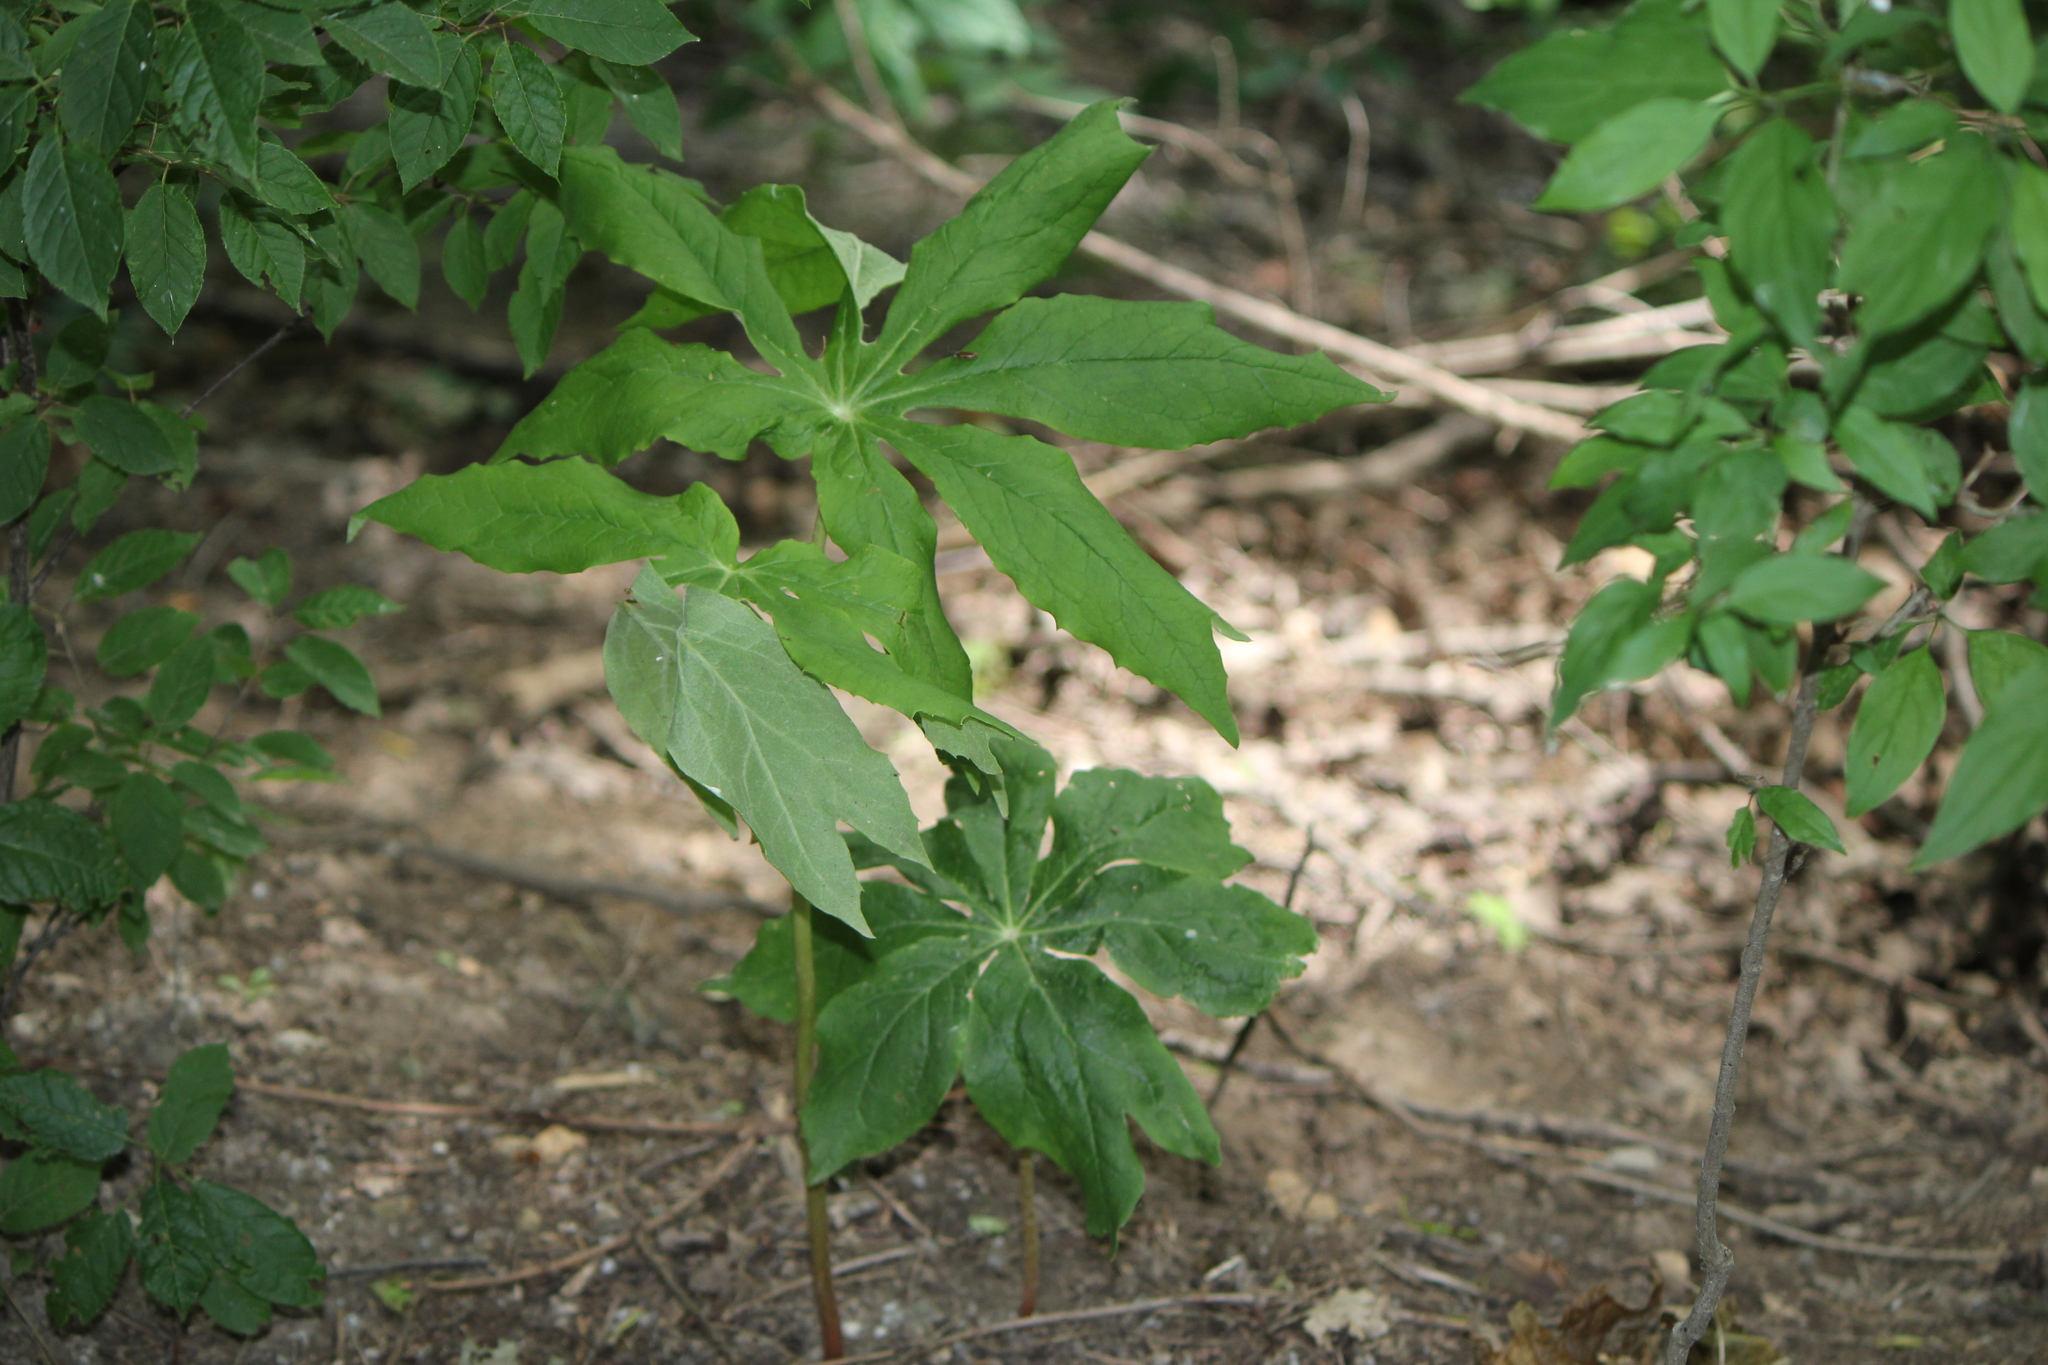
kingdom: Plantae
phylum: Tracheophyta
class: Magnoliopsida
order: Ranunculales
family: Berberidaceae
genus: Podophyllum
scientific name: Podophyllum peltatum
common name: Wild mandrake
